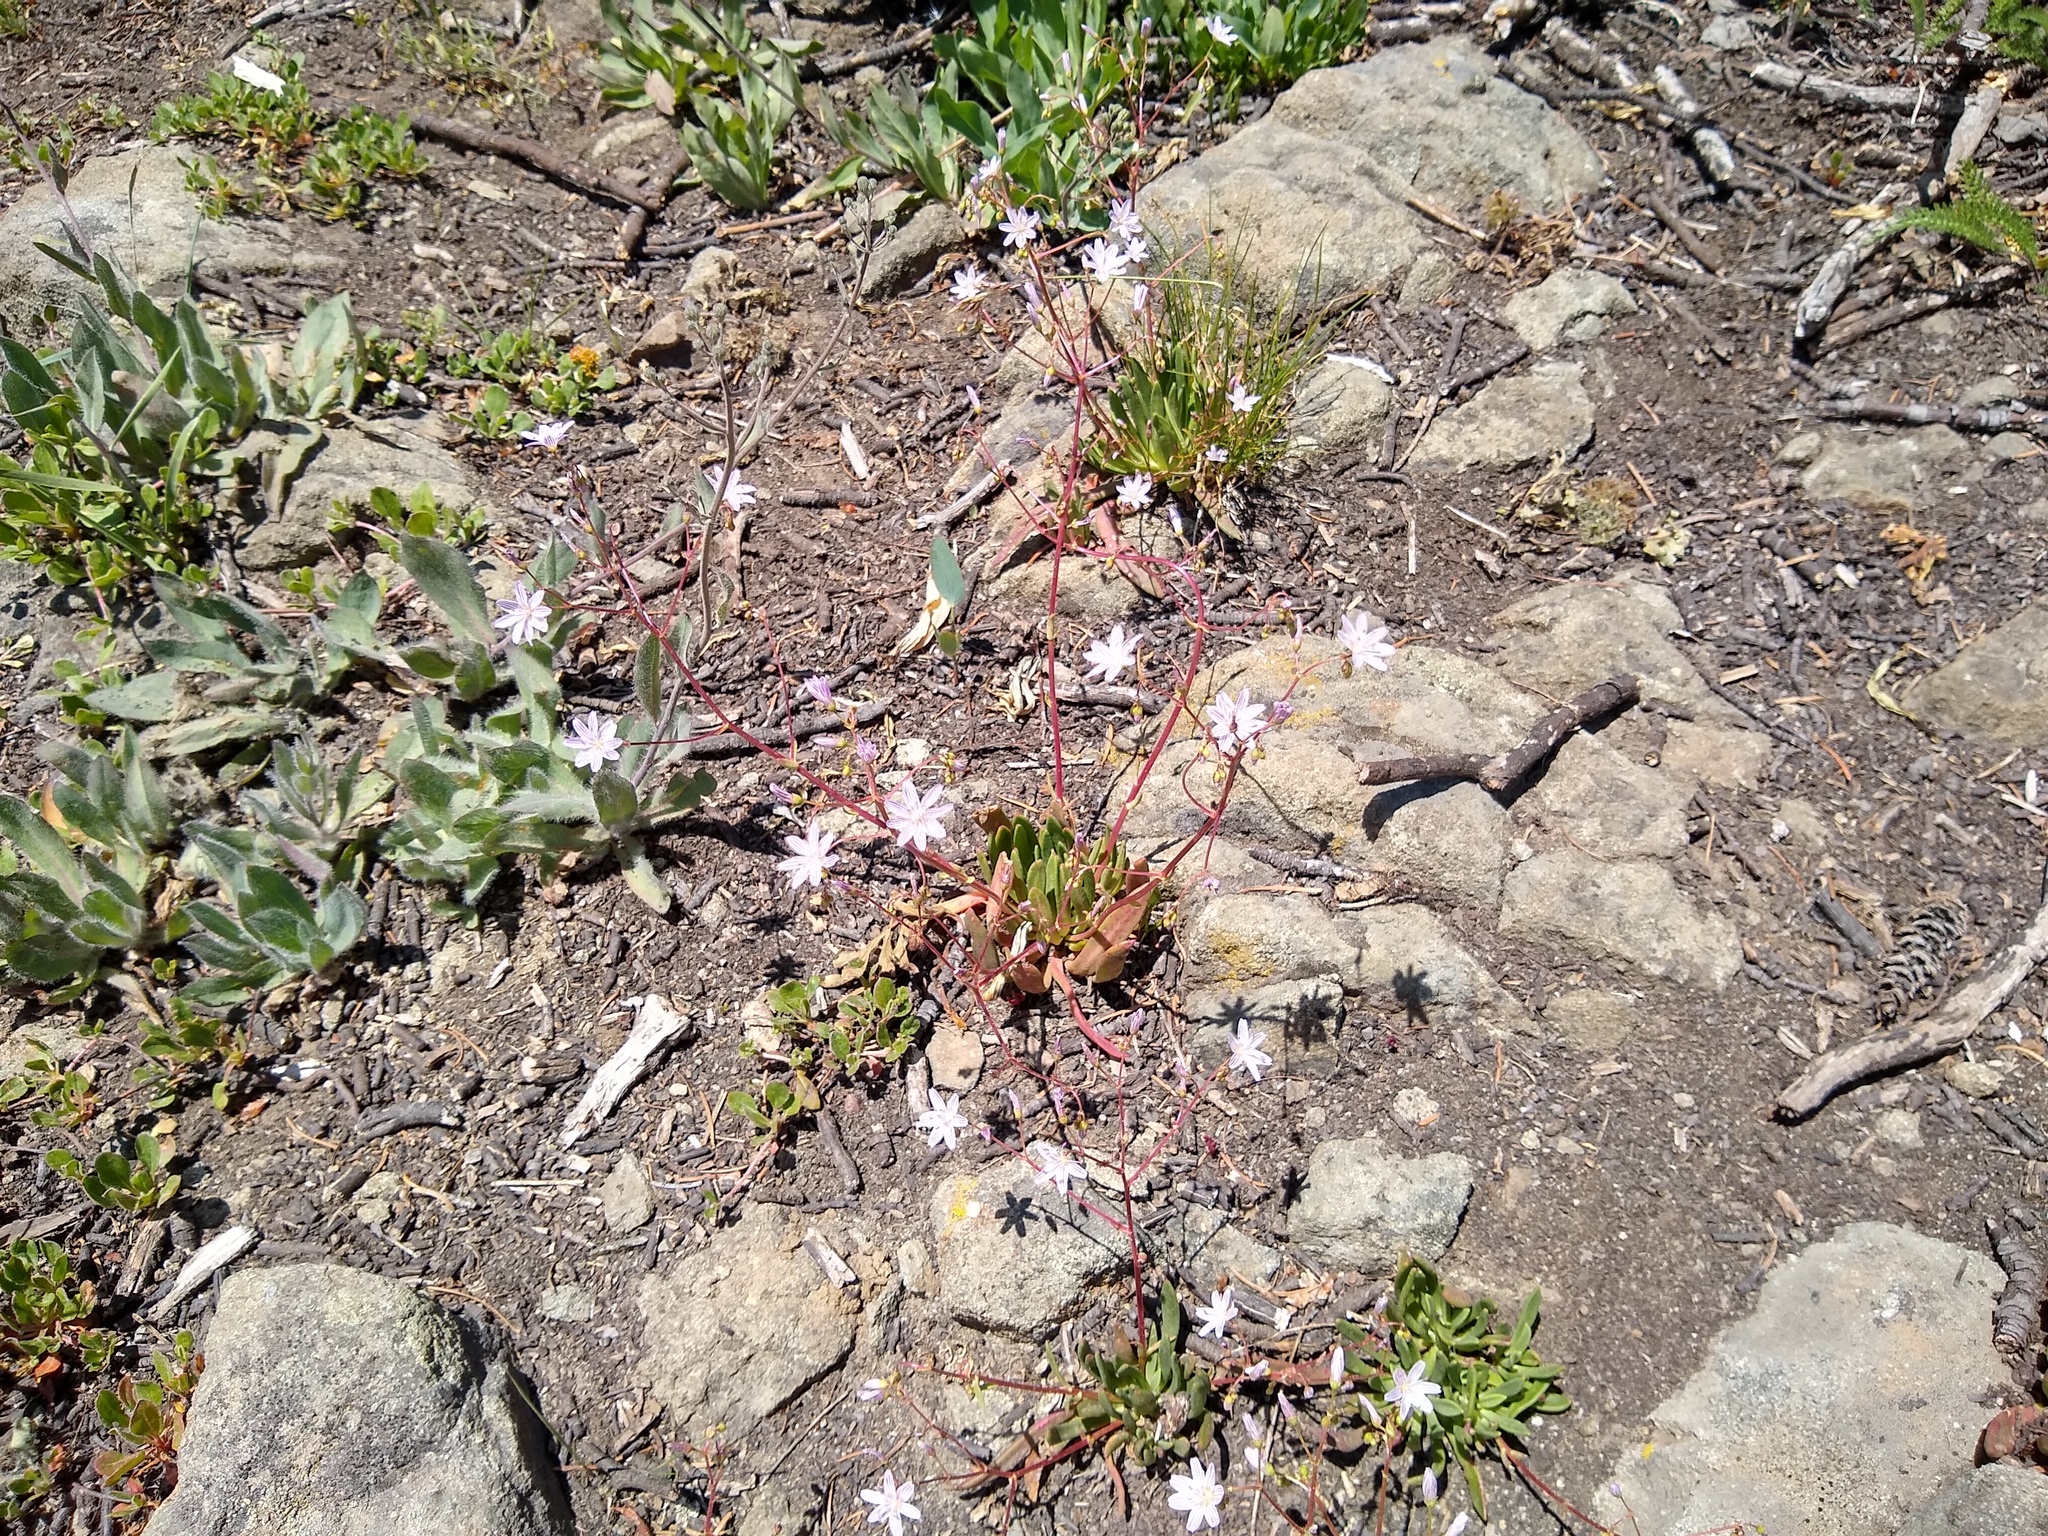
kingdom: Plantae
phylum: Tracheophyta
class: Magnoliopsida
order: Caryophyllales
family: Montiaceae
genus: Lewisia
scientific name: Lewisia columbiana
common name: Columbia lewisia
